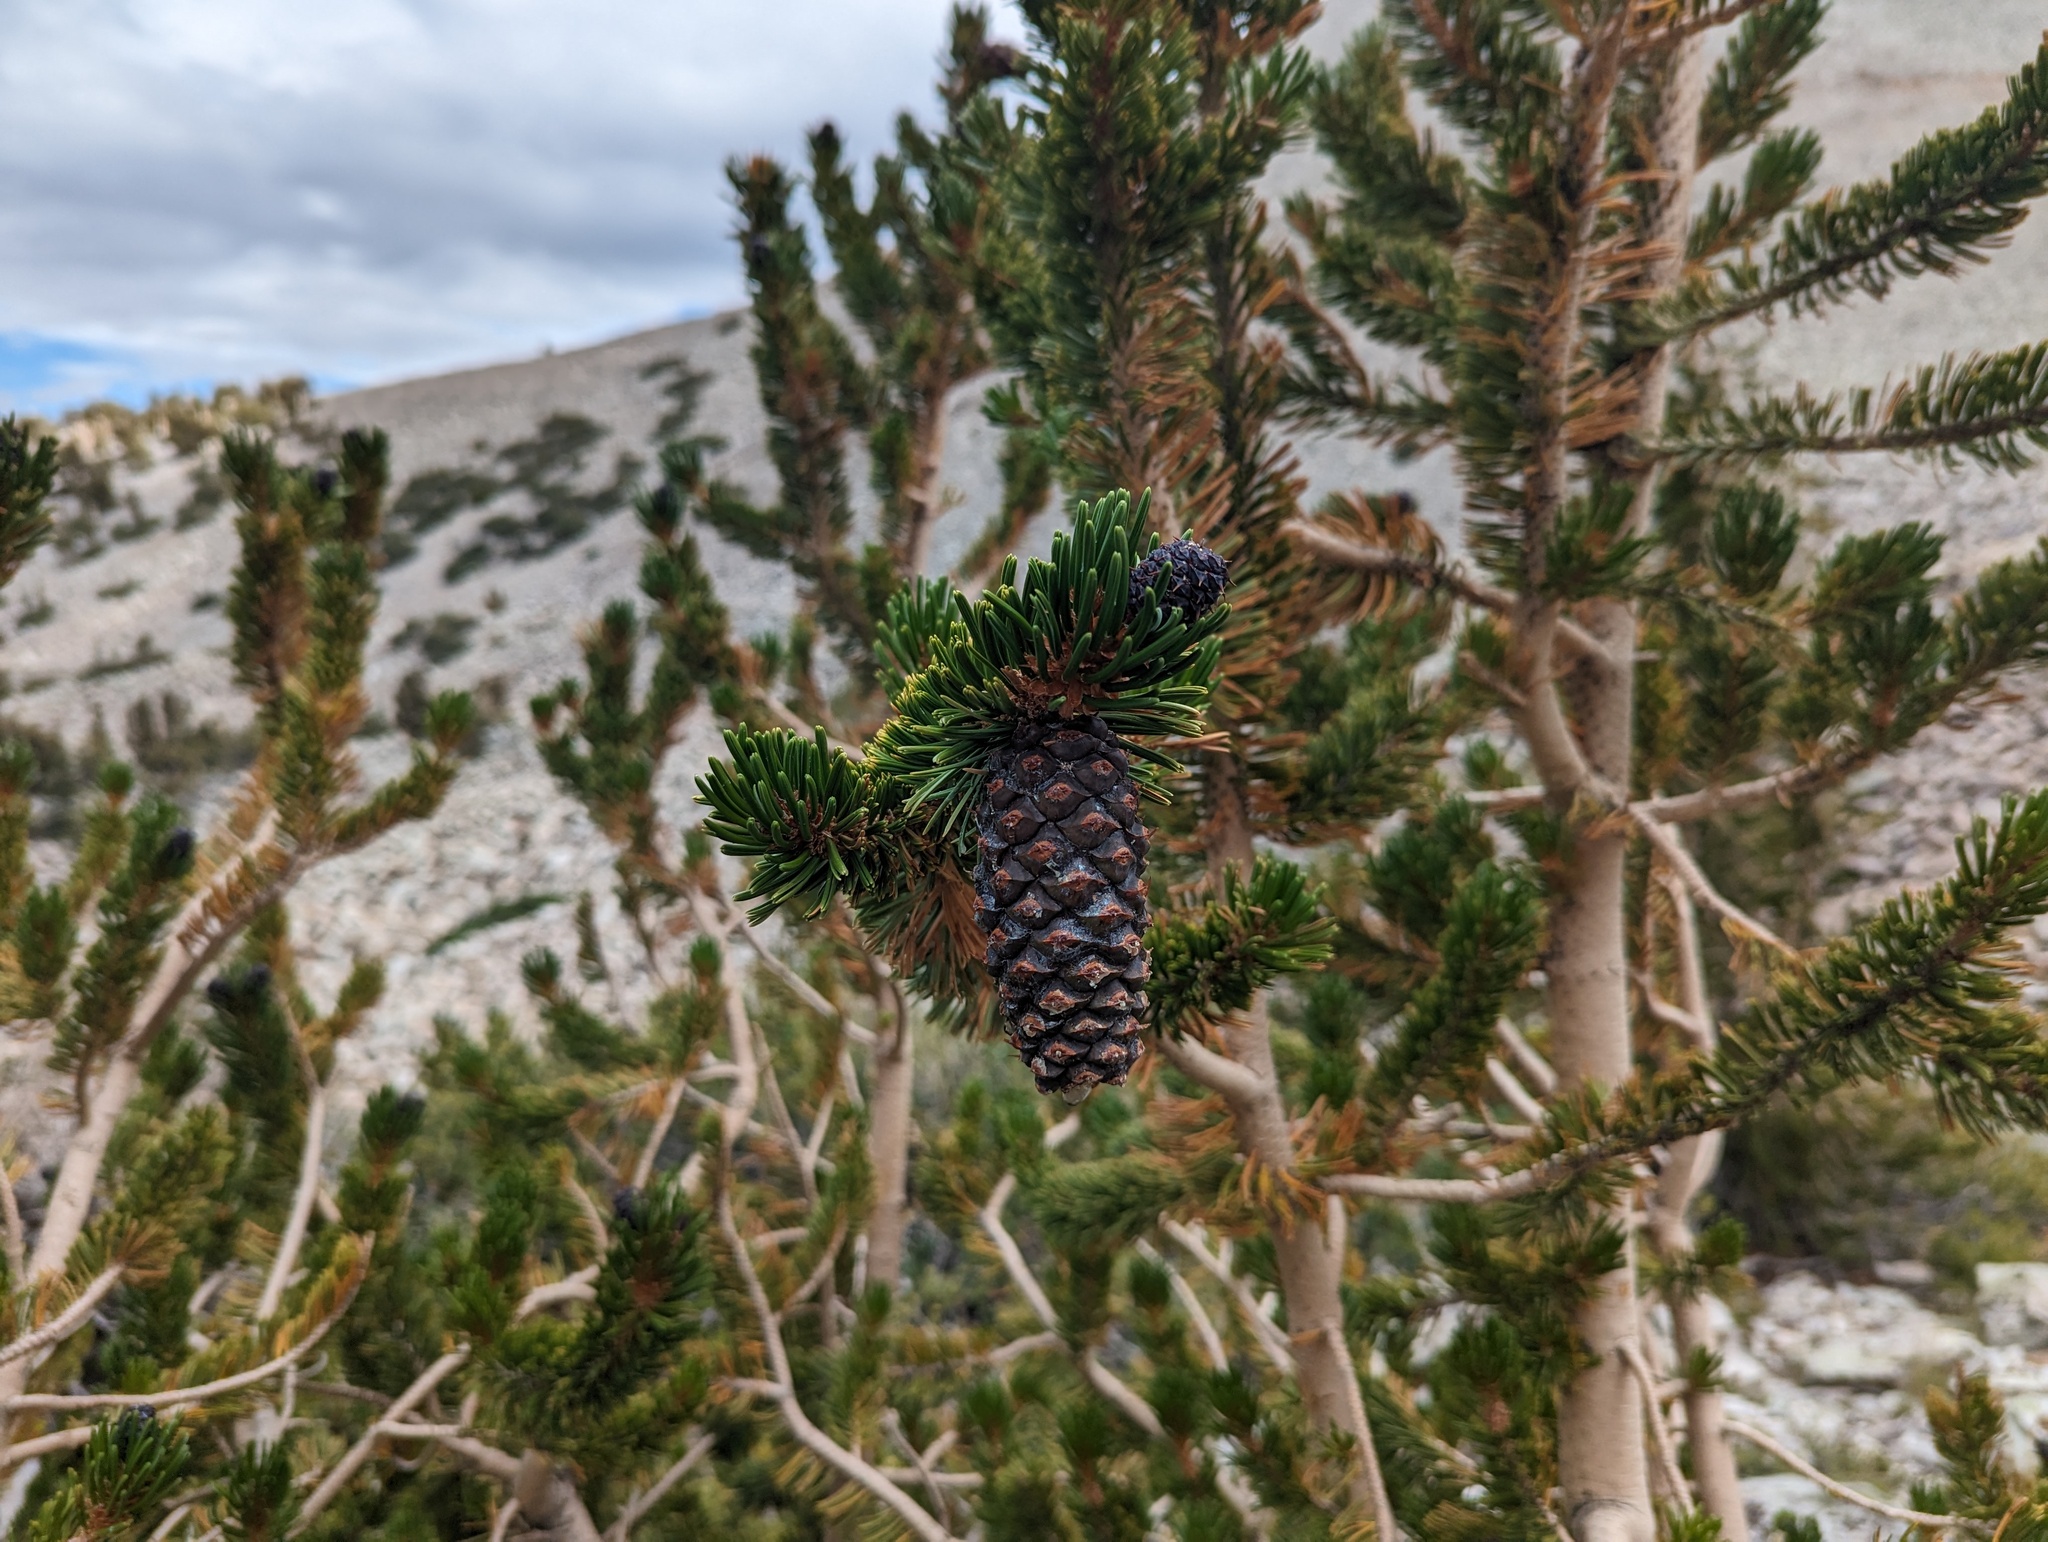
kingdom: Plantae
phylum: Tracheophyta
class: Pinopsida
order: Pinales
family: Pinaceae
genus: Pinus
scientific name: Pinus longaeva
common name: Intermountain bristlecone pine
